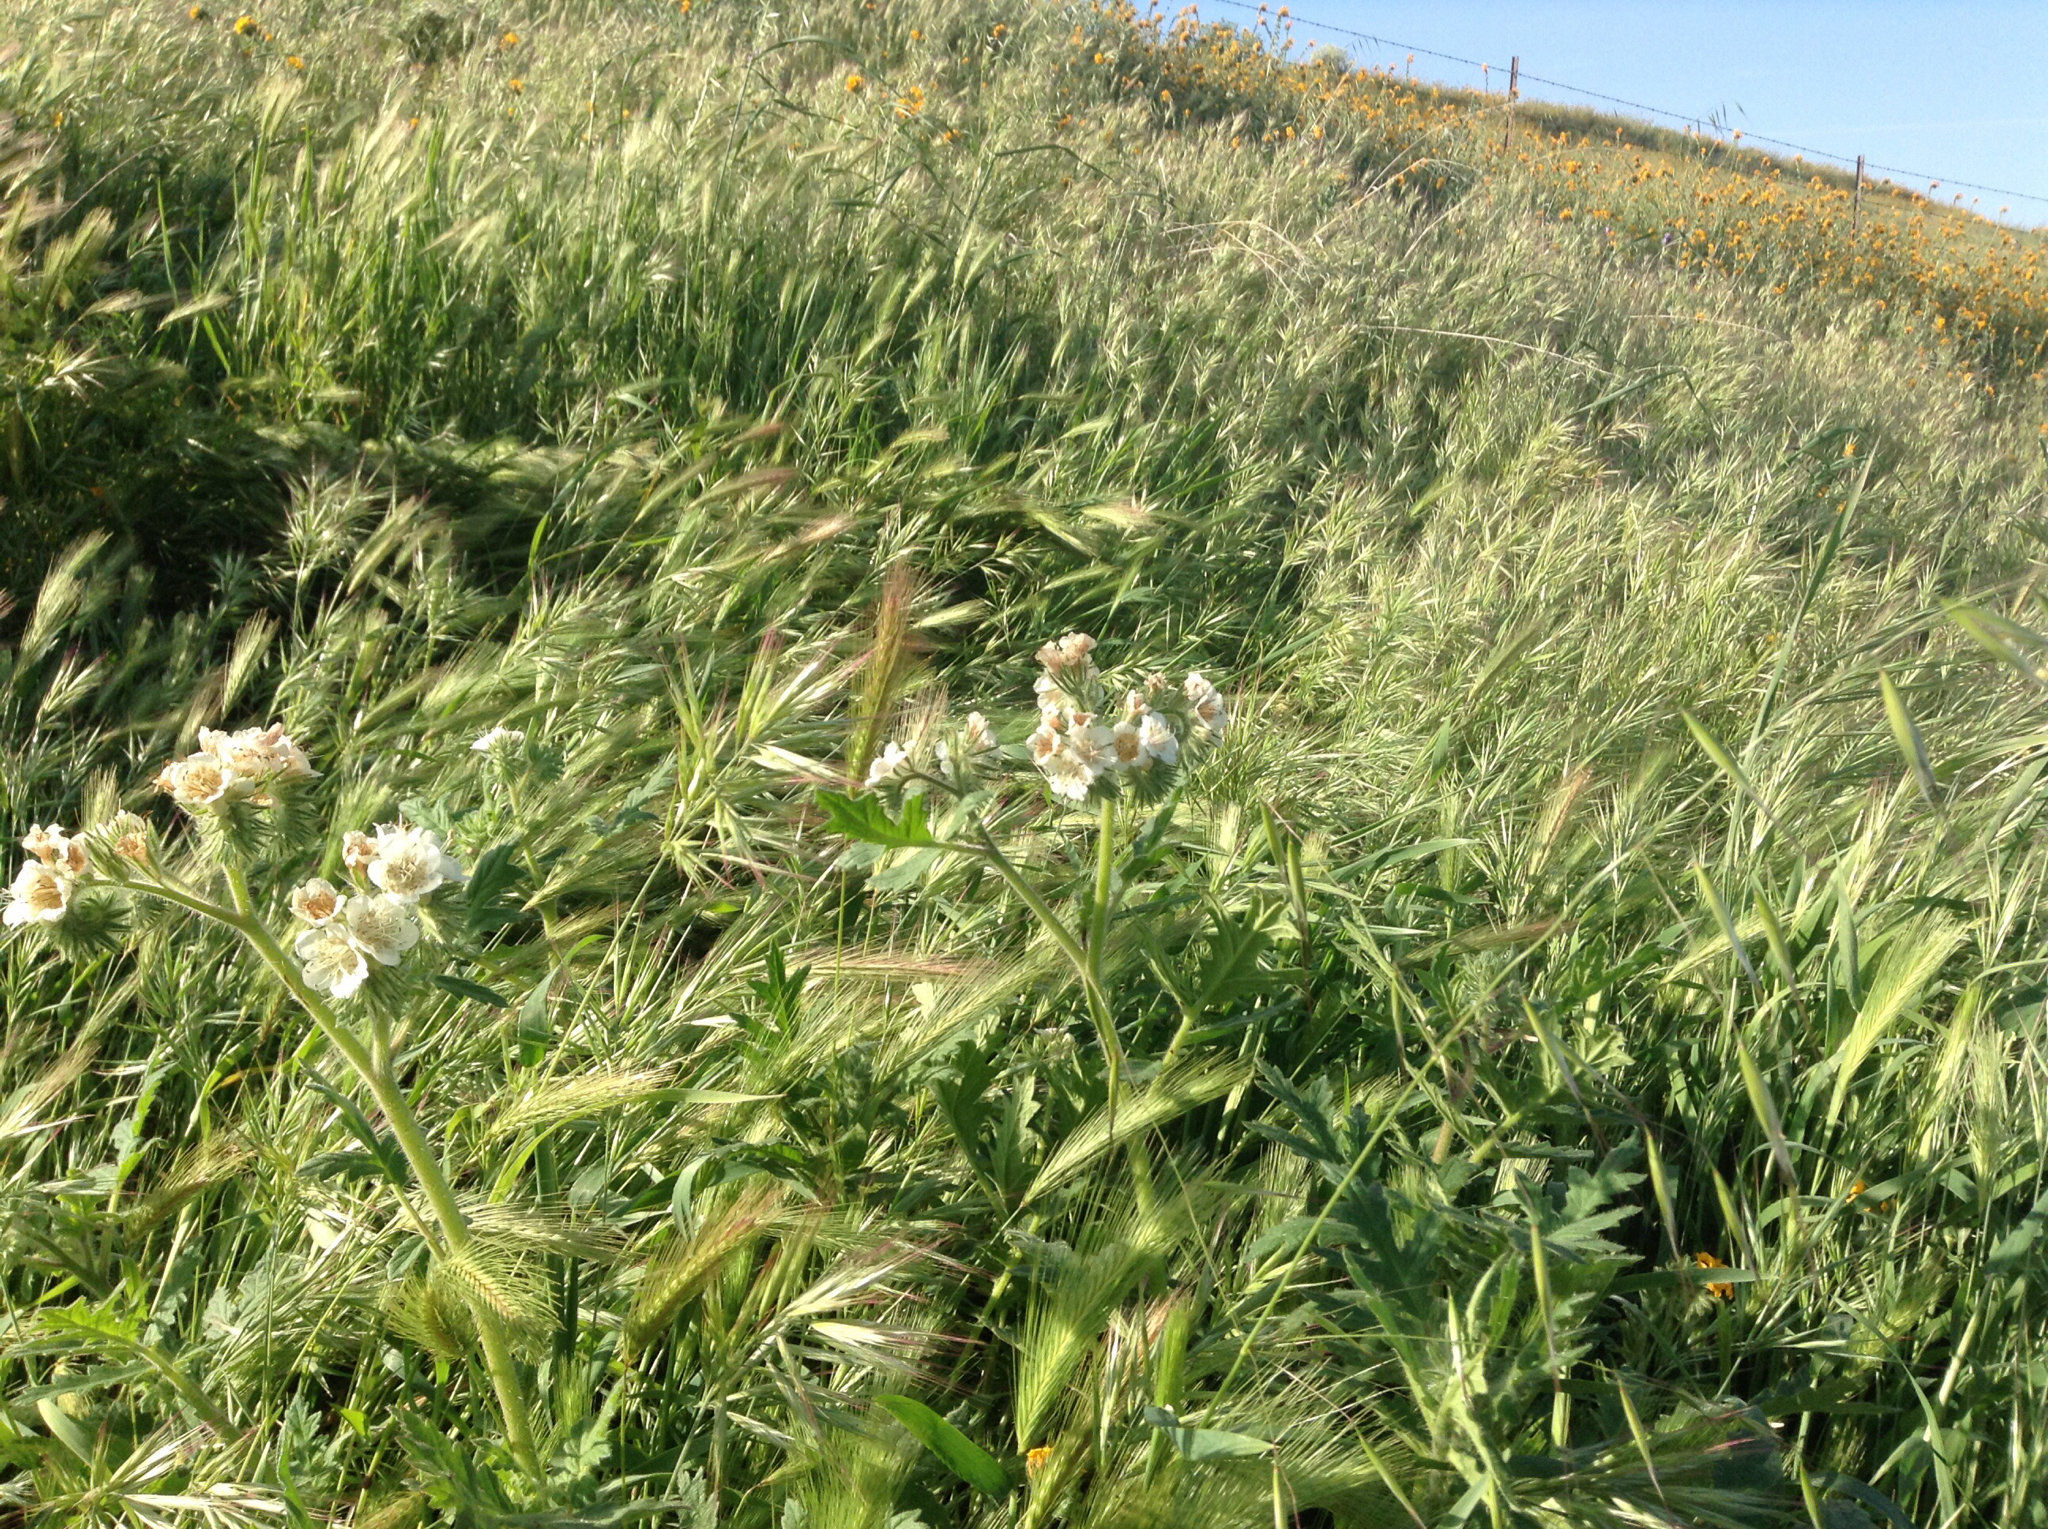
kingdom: Plantae
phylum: Tracheophyta
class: Magnoliopsida
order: Boraginales
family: Hydrophyllaceae
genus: Phacelia
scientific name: Phacelia cicutaria
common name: Caterpillar phacelia
